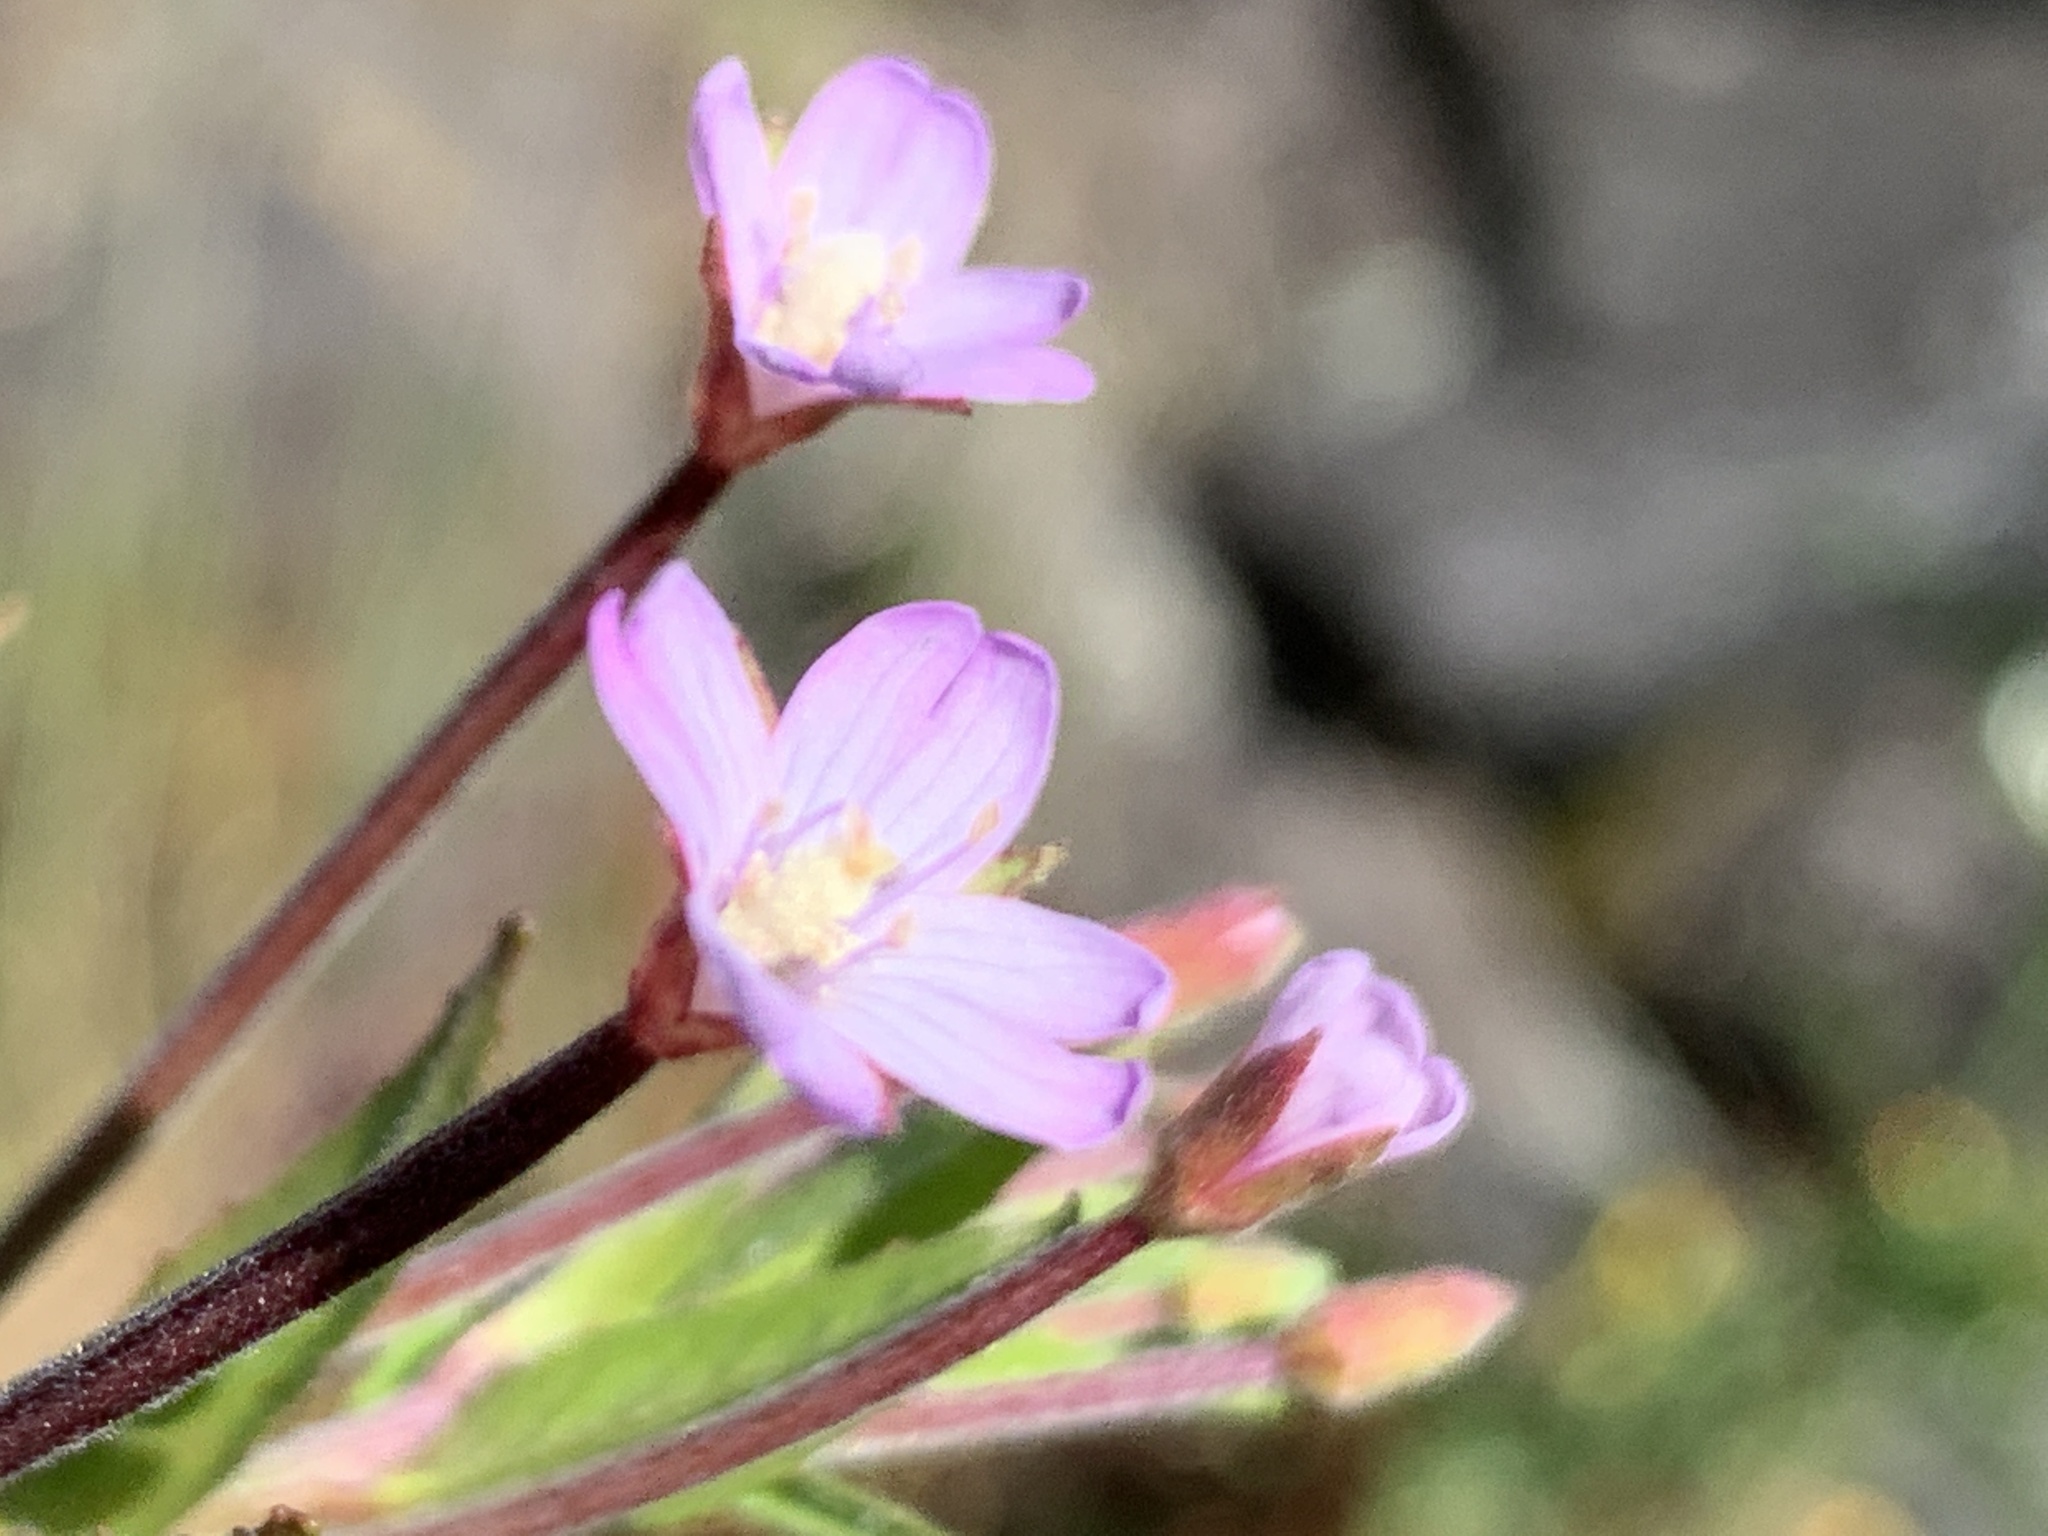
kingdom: Plantae
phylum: Tracheophyta
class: Magnoliopsida
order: Myrtales
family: Onagraceae
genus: Epilobium
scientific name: Epilobium ciliatum
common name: American willowherb
